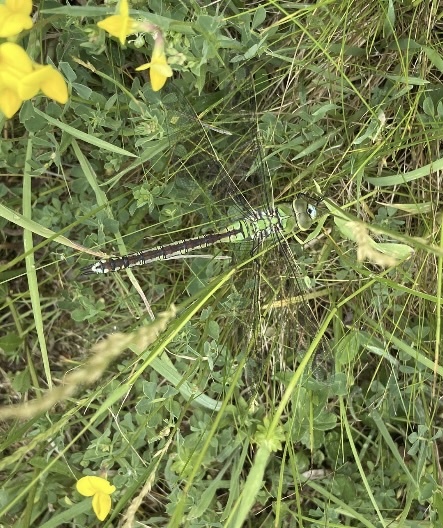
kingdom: Animalia
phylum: Arthropoda
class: Insecta
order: Odonata
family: Aeshnidae
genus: Anax
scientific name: Anax imperator
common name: Emperor dragonfly
